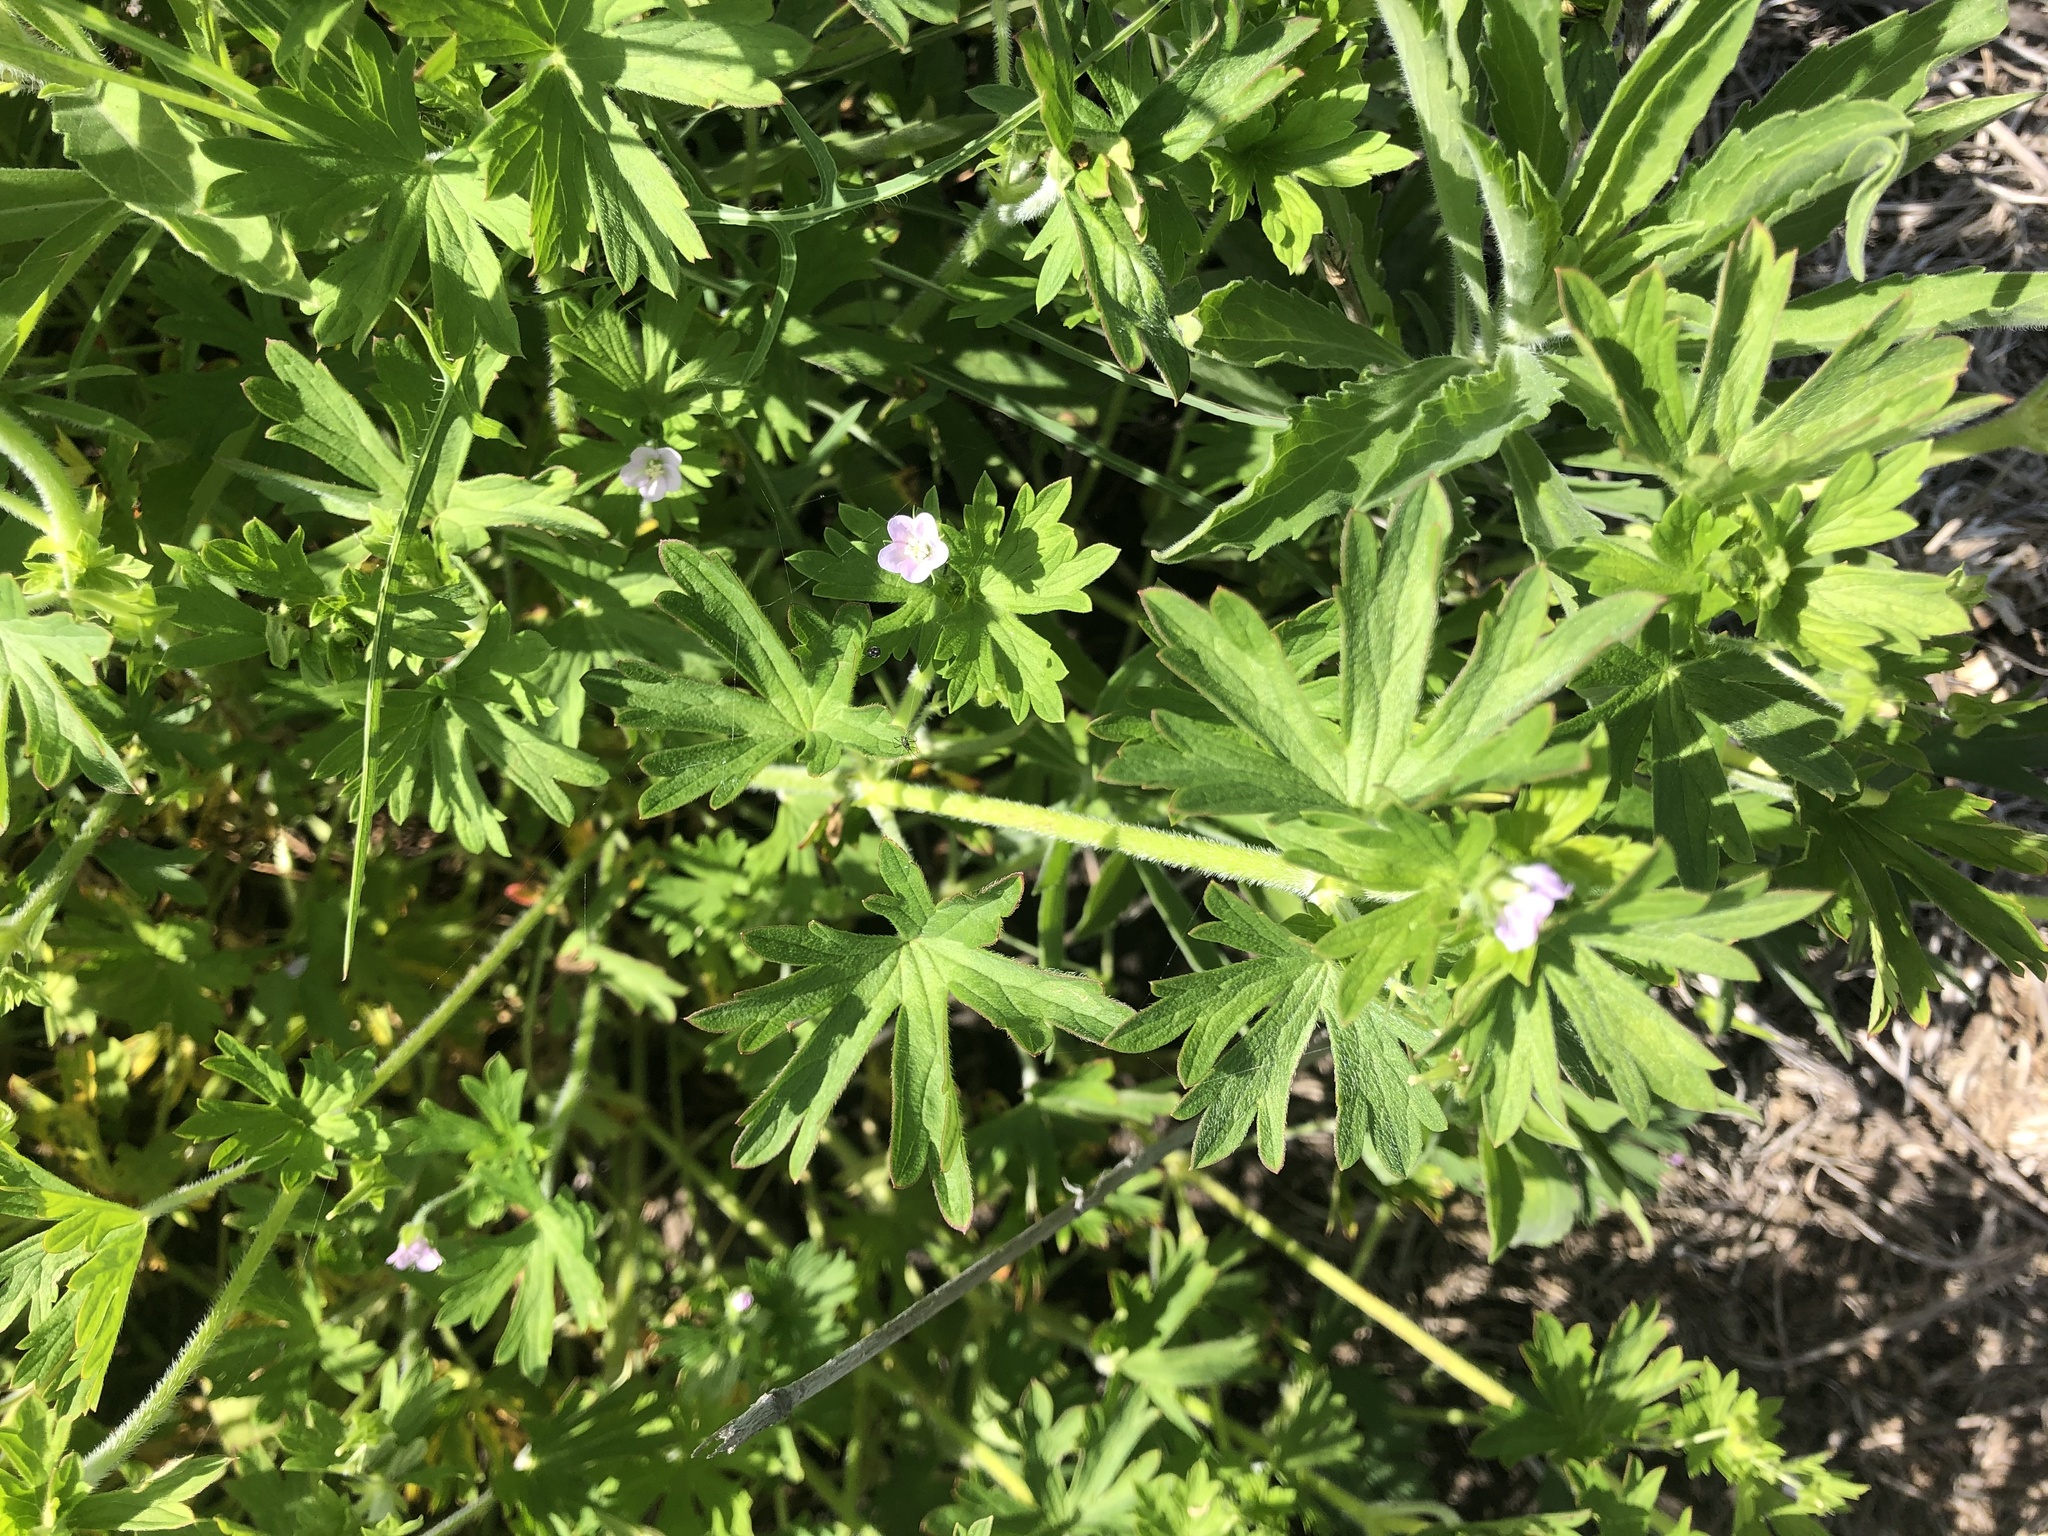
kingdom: Plantae
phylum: Tracheophyta
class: Magnoliopsida
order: Geraniales
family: Geraniaceae
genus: Geranium
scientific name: Geranium solanderi
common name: Solander's geranium
